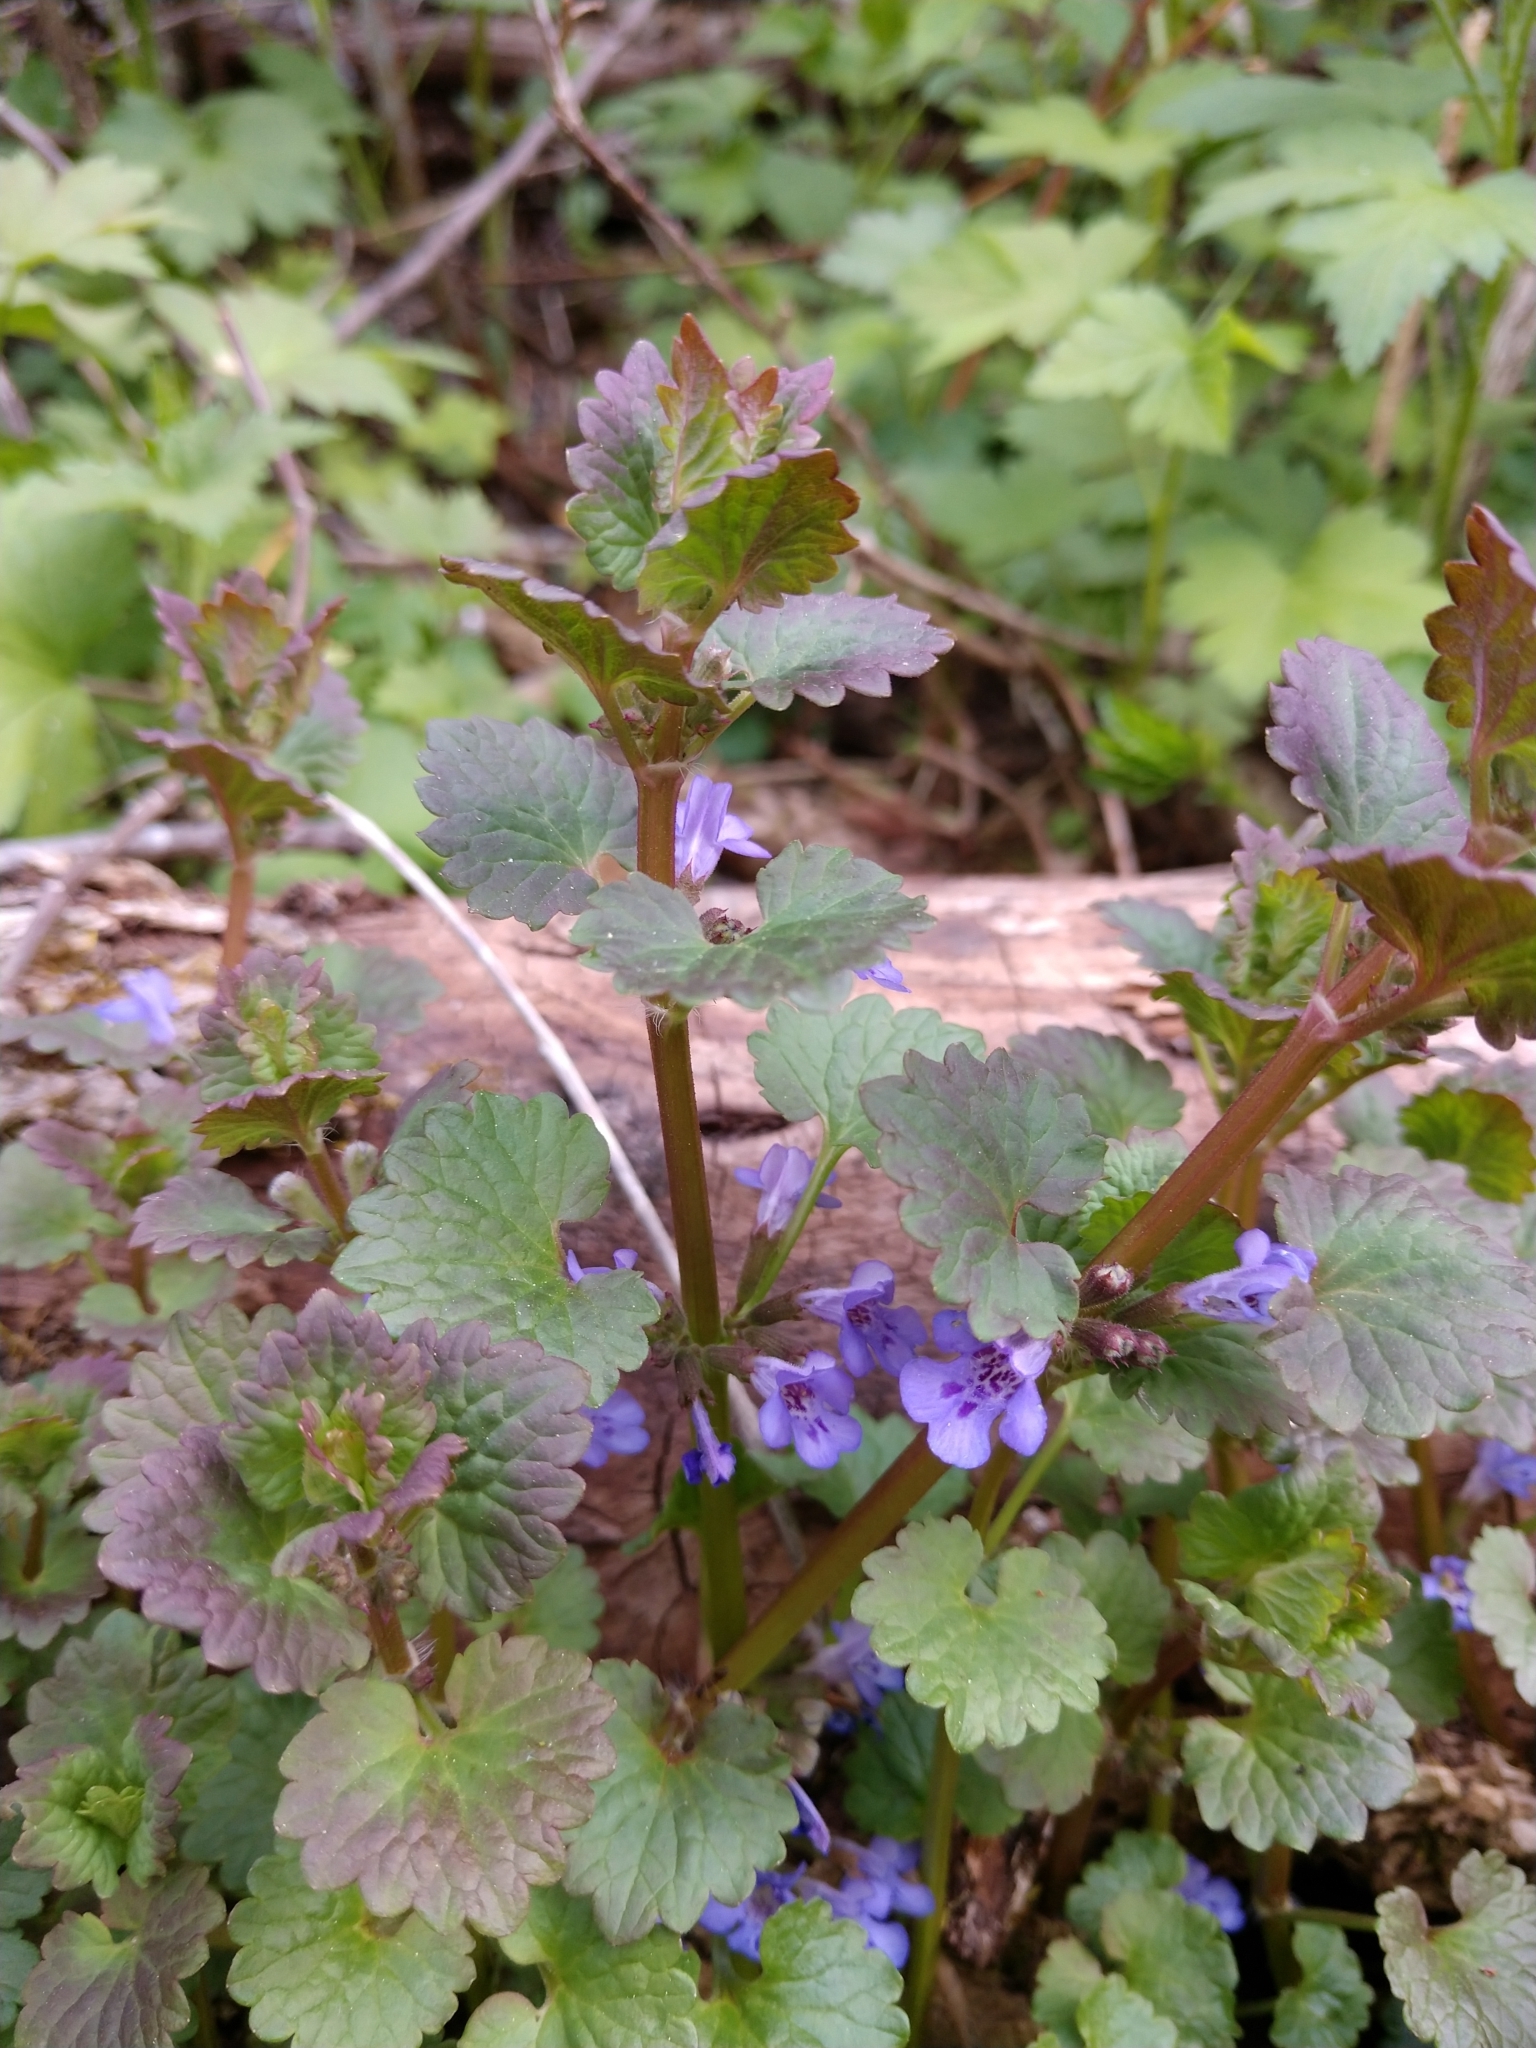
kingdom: Plantae
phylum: Tracheophyta
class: Magnoliopsida
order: Lamiales
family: Lamiaceae
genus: Glechoma
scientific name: Glechoma hederacea
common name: Ground ivy
